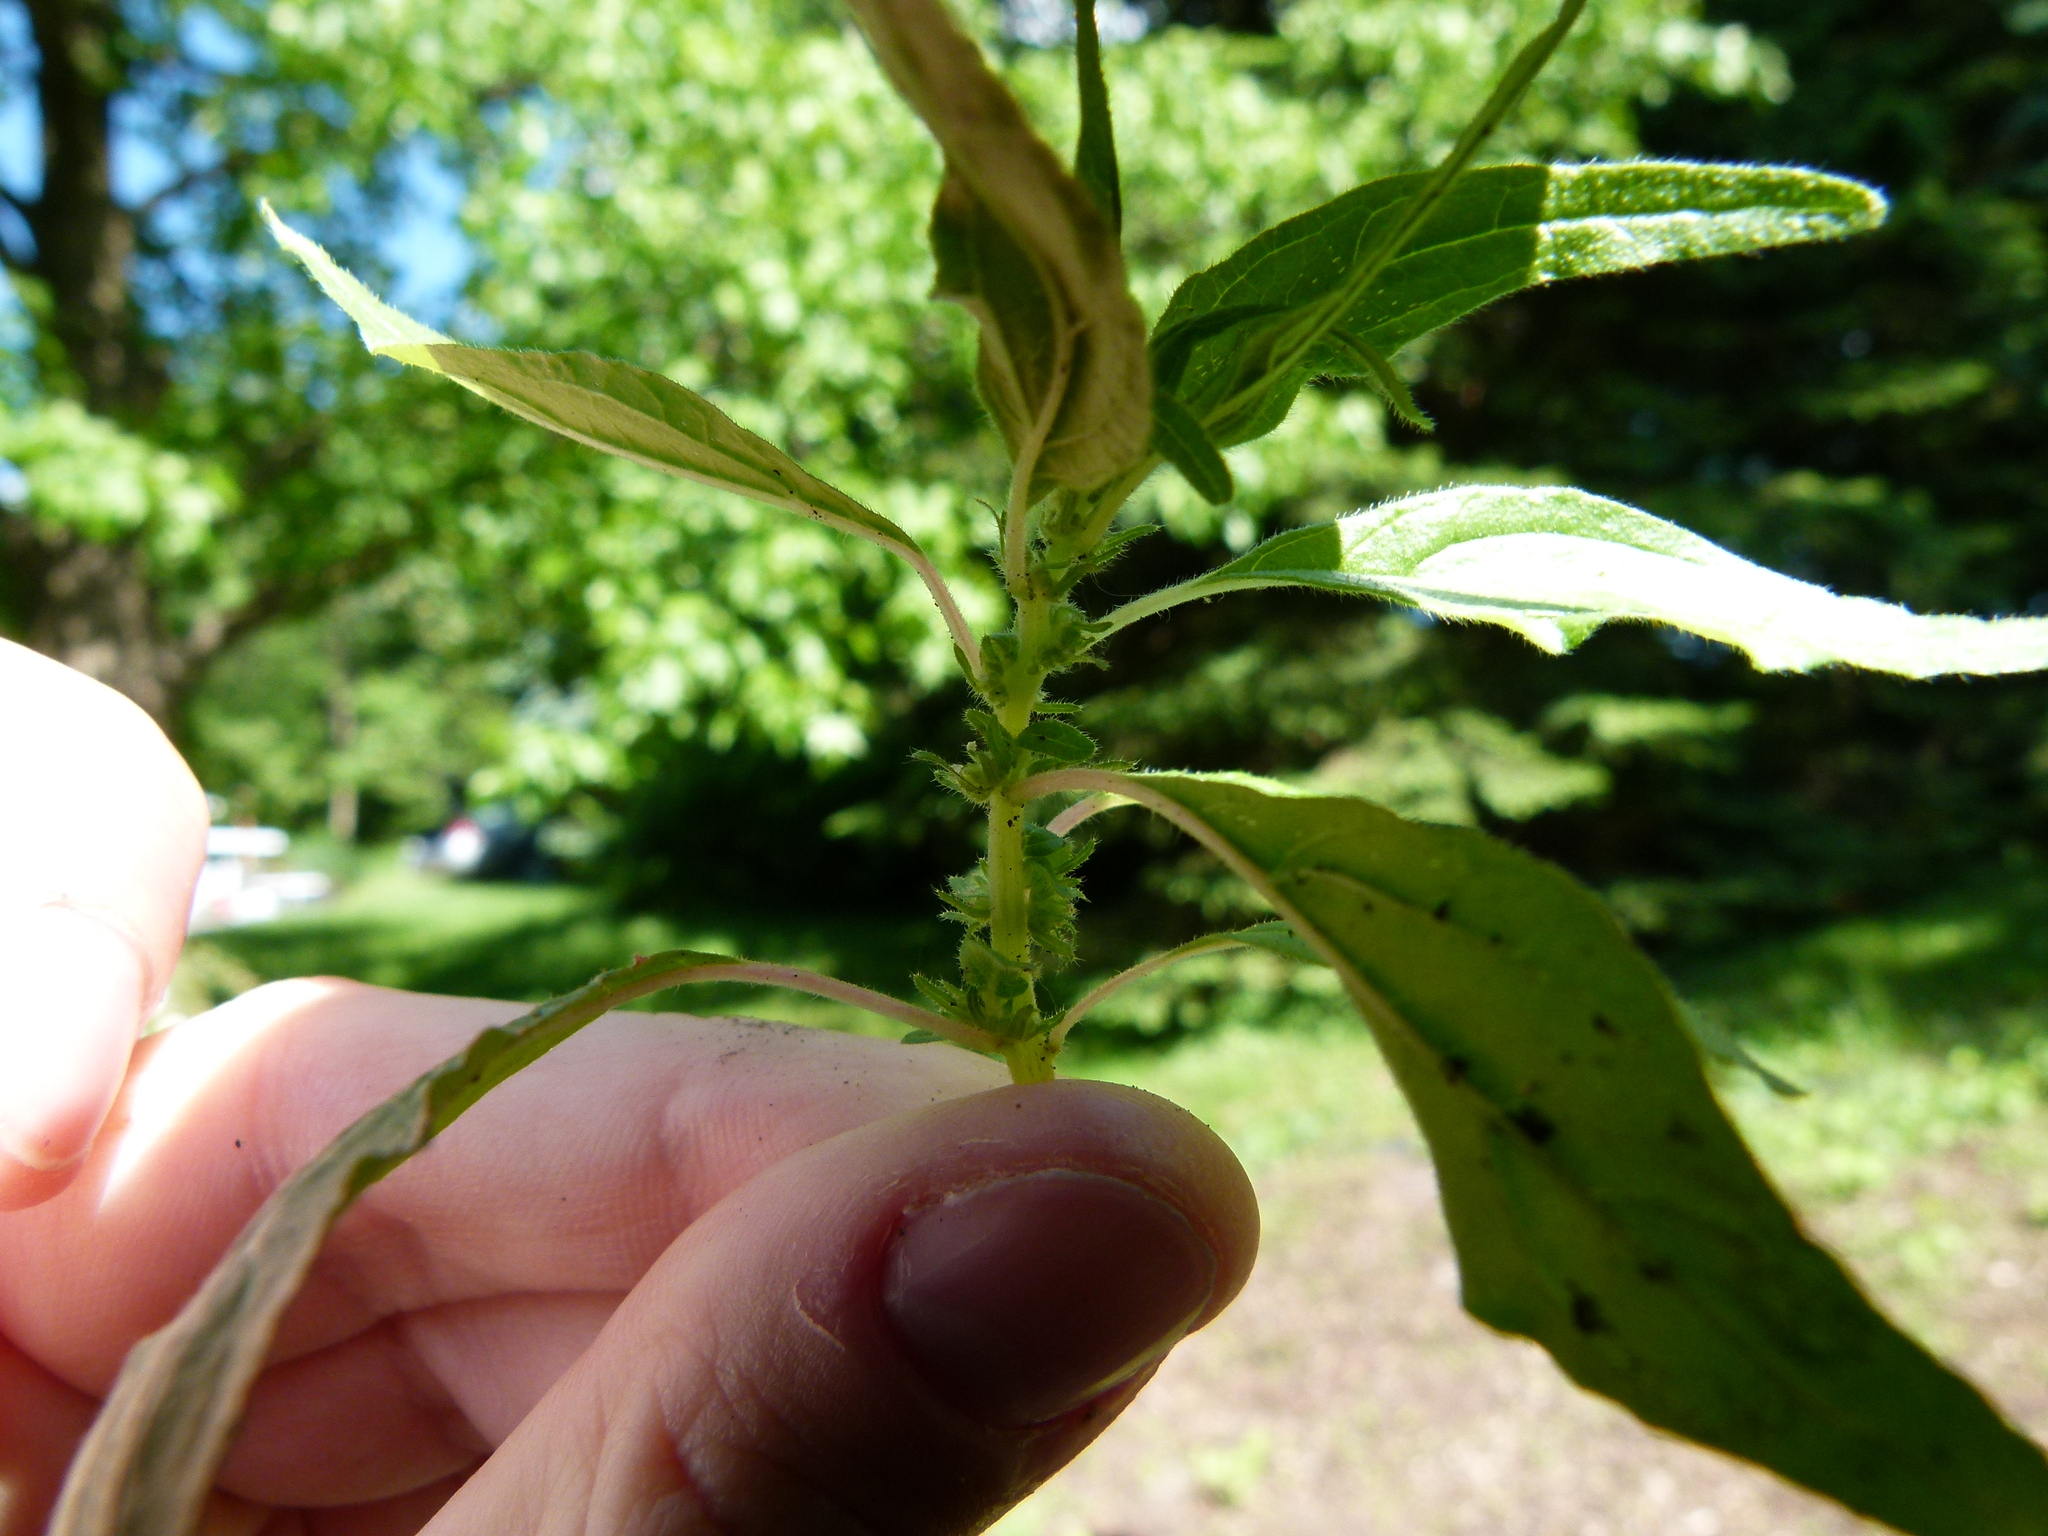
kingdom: Plantae
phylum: Tracheophyta
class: Magnoliopsida
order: Rosales
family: Urticaceae
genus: Parietaria
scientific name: Parietaria pensylvanica
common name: Pennsylvania pellitory
